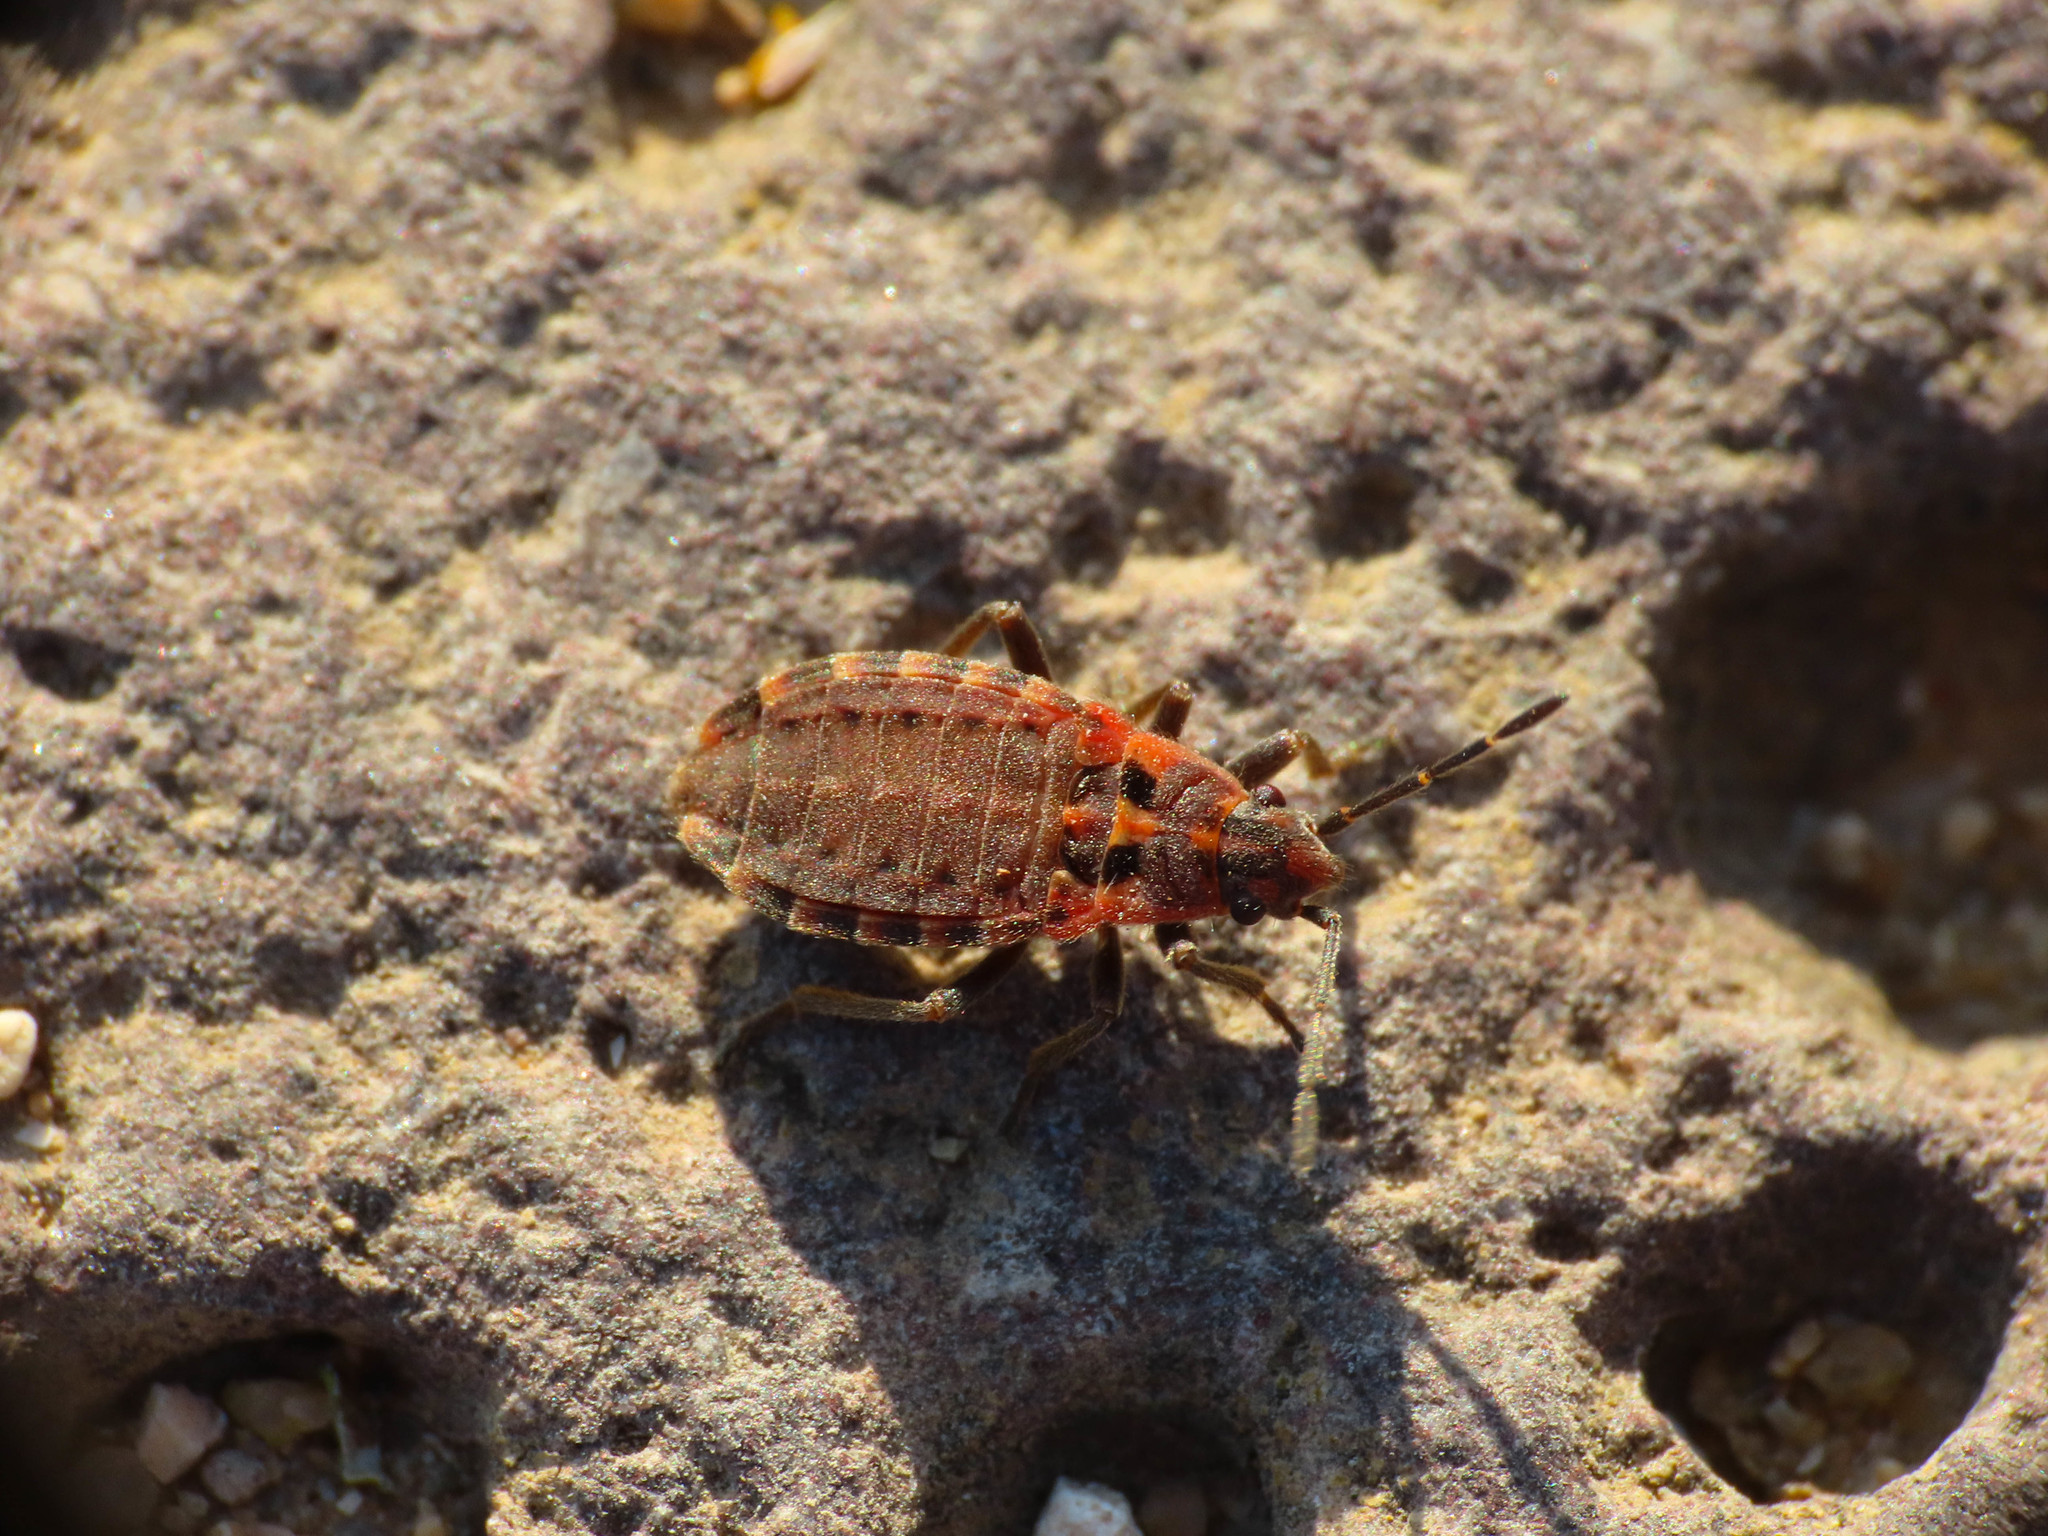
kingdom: Animalia
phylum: Arthropoda
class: Insecta
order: Hemiptera
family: Lygaeidae
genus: Apterola
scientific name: Apterola kunckeli
